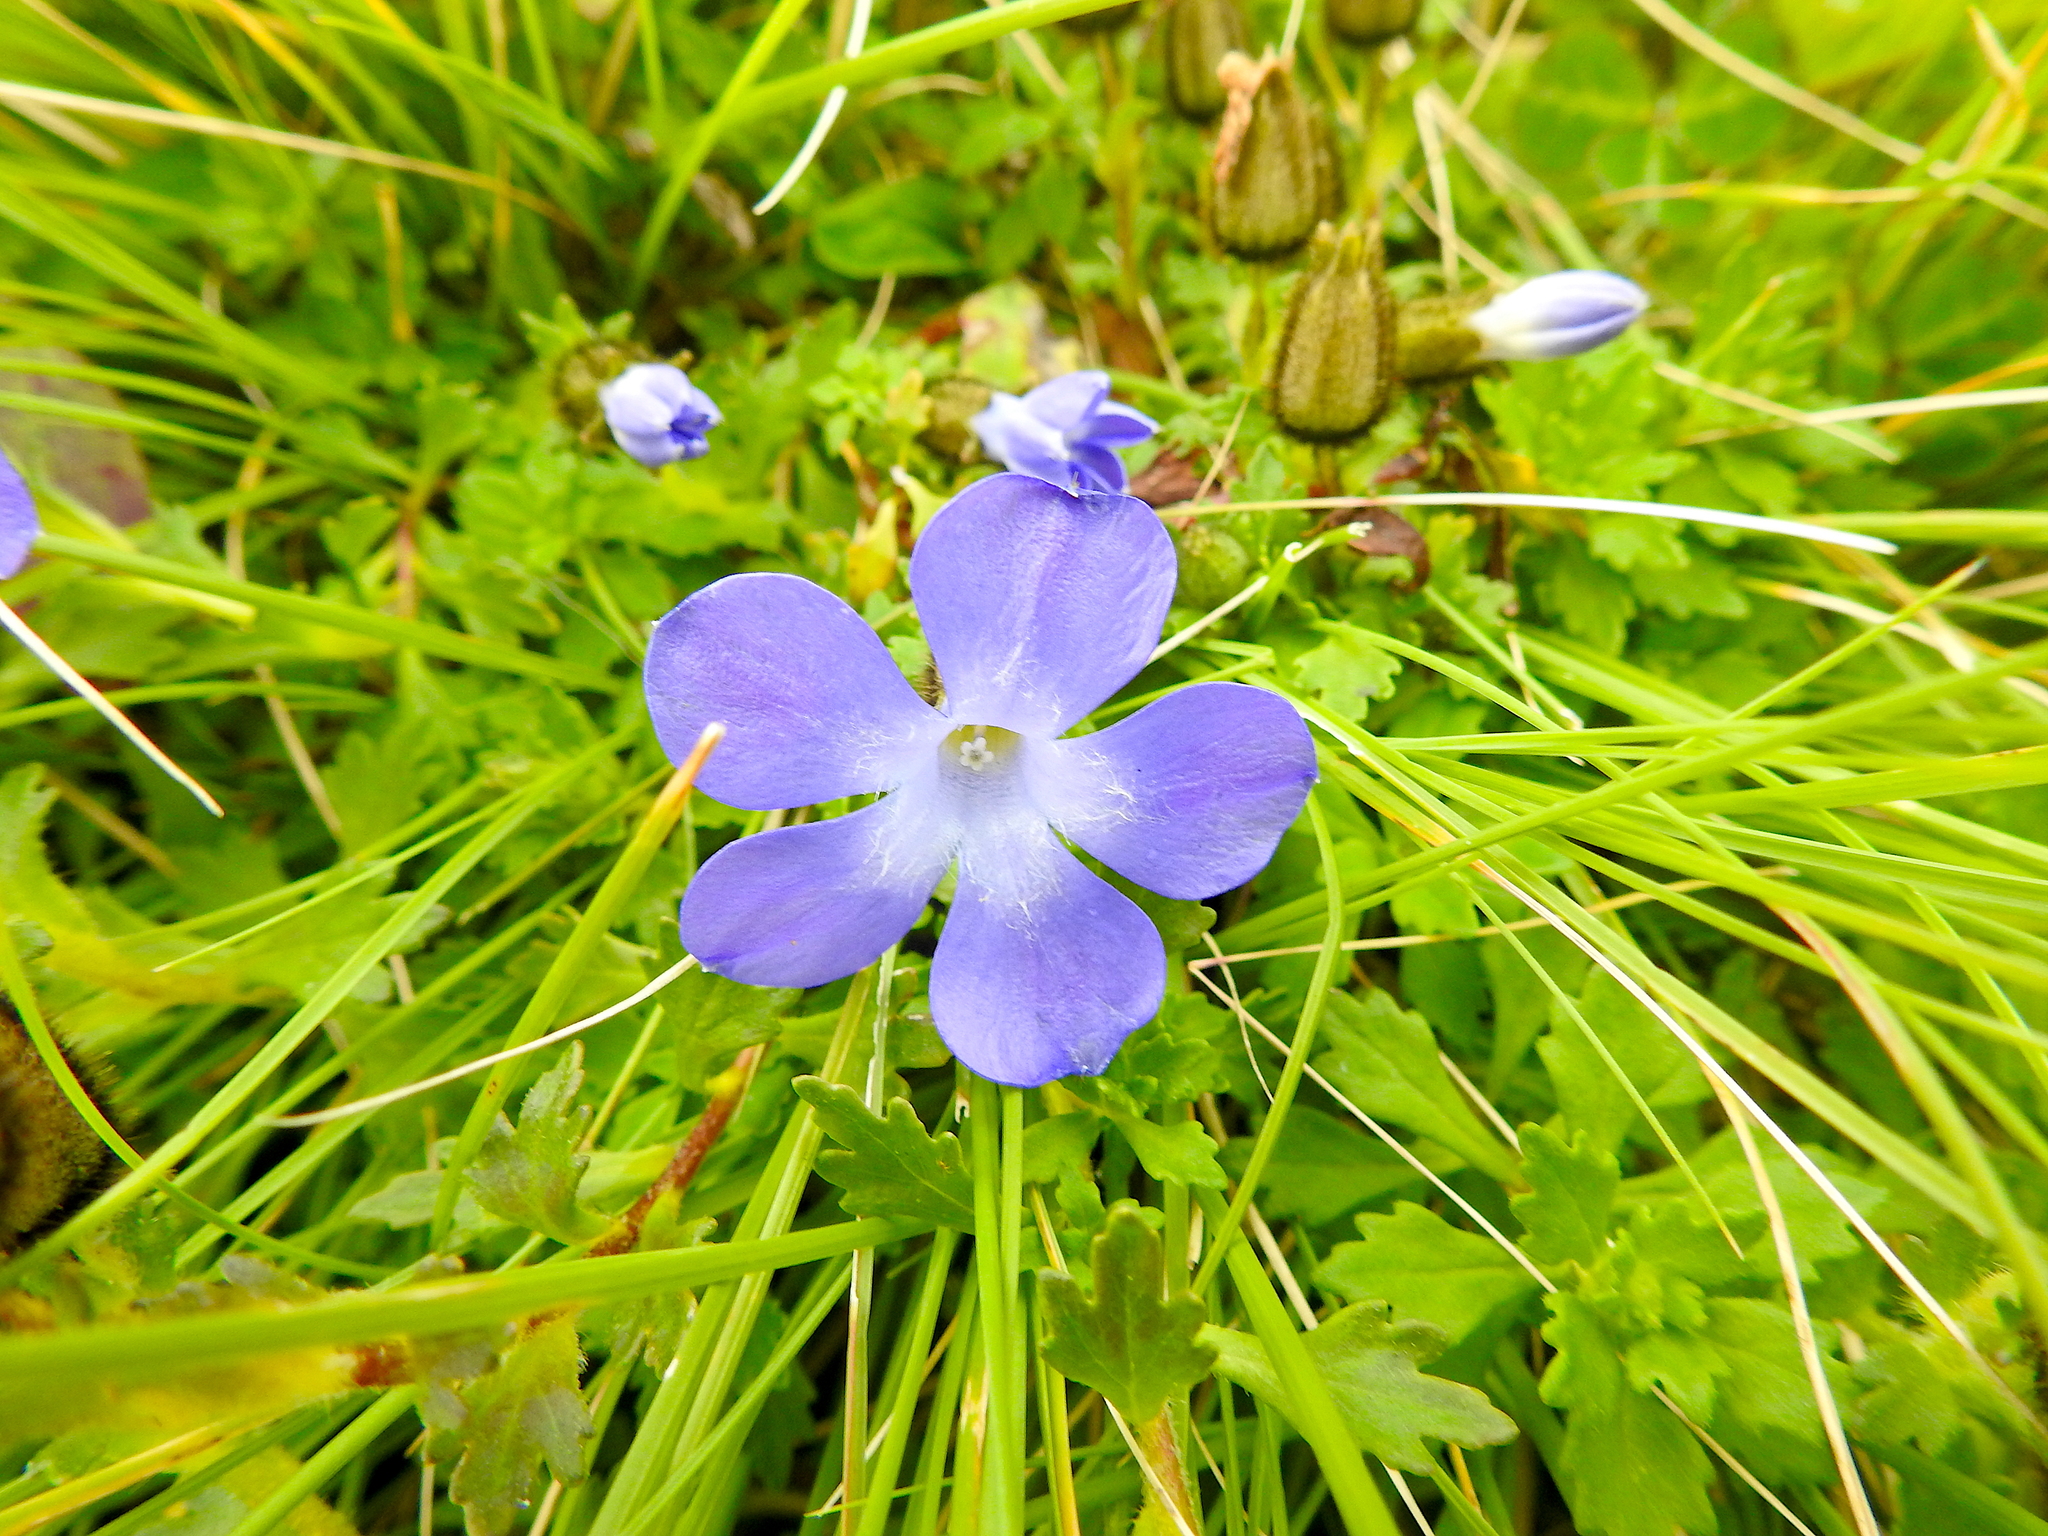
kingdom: Plantae
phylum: Tracheophyta
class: Magnoliopsida
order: Asterales
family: Campanulaceae
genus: Cyananthus
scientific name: Cyananthus lobatus
